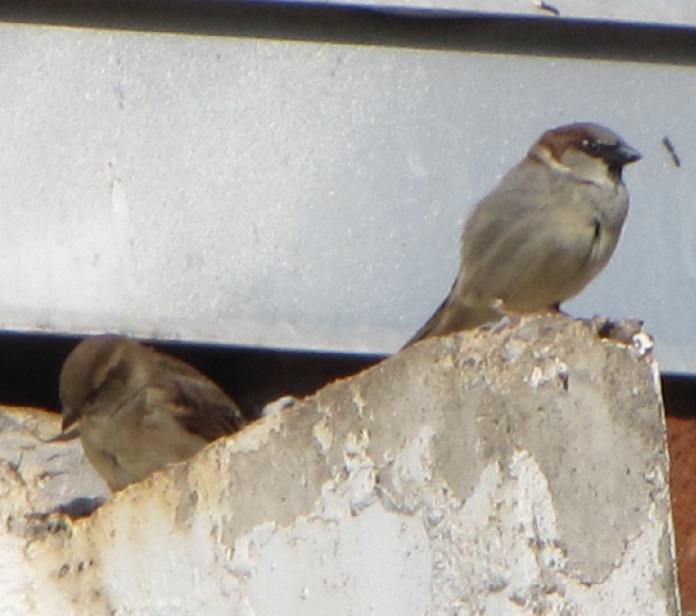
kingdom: Animalia
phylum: Chordata
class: Aves
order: Passeriformes
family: Passeridae
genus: Passer
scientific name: Passer domesticus
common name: House sparrow
